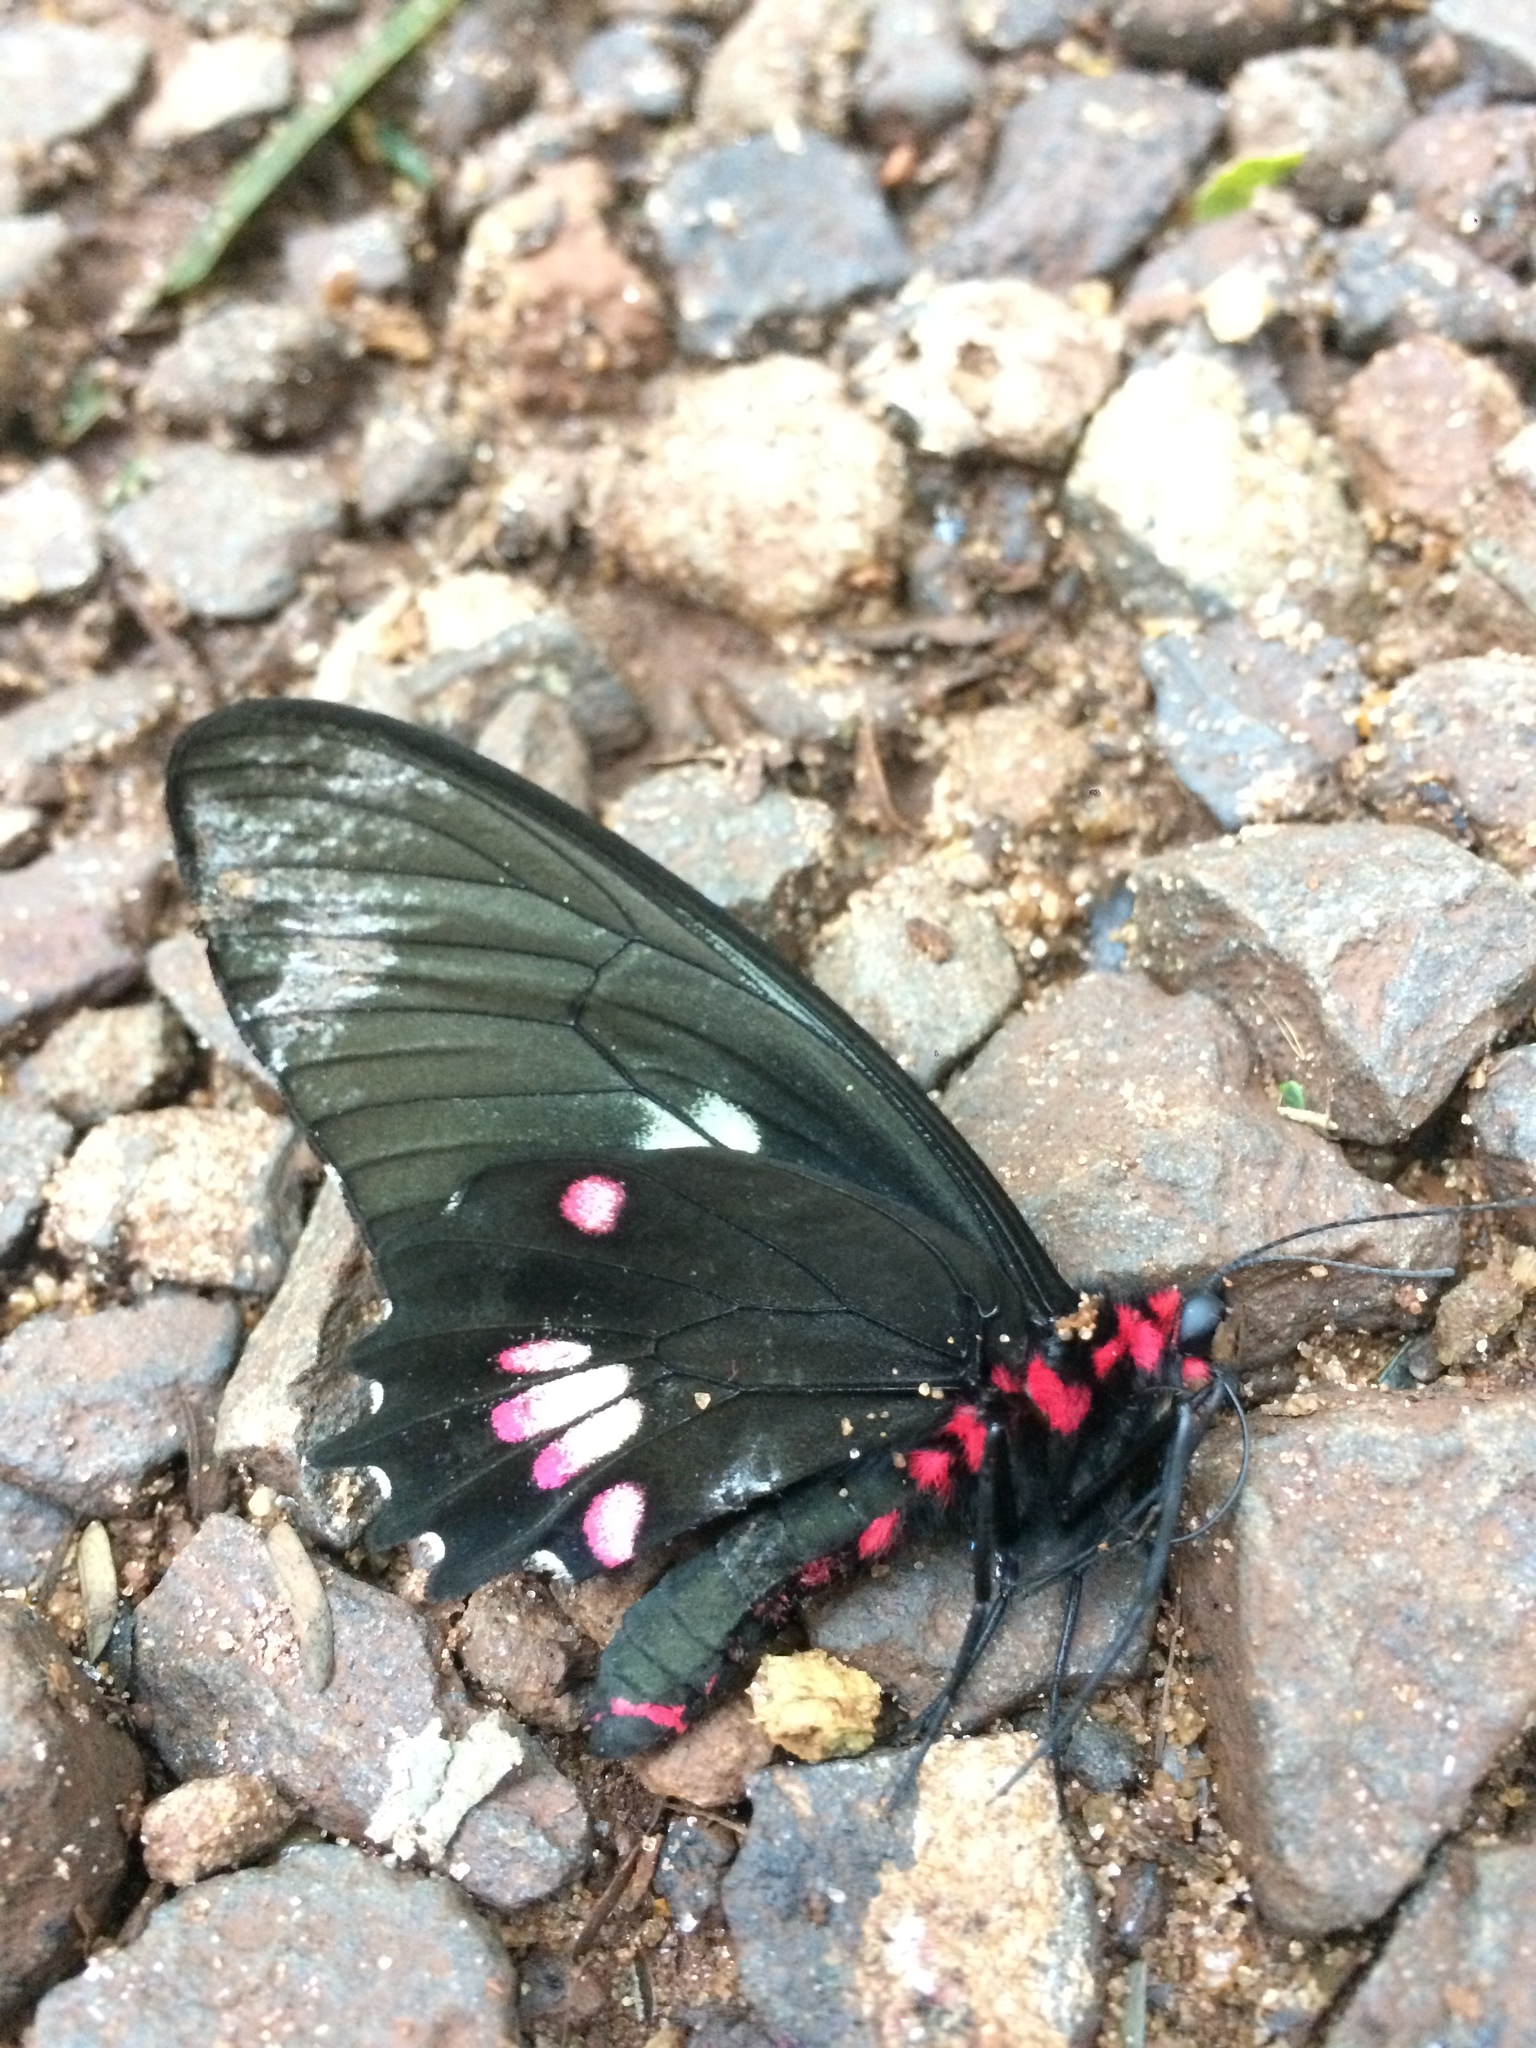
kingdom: Animalia
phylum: Arthropoda
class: Insecta
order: Lepidoptera
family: Papilionidae
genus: Parides
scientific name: Parides anchises
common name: Cattle heart
